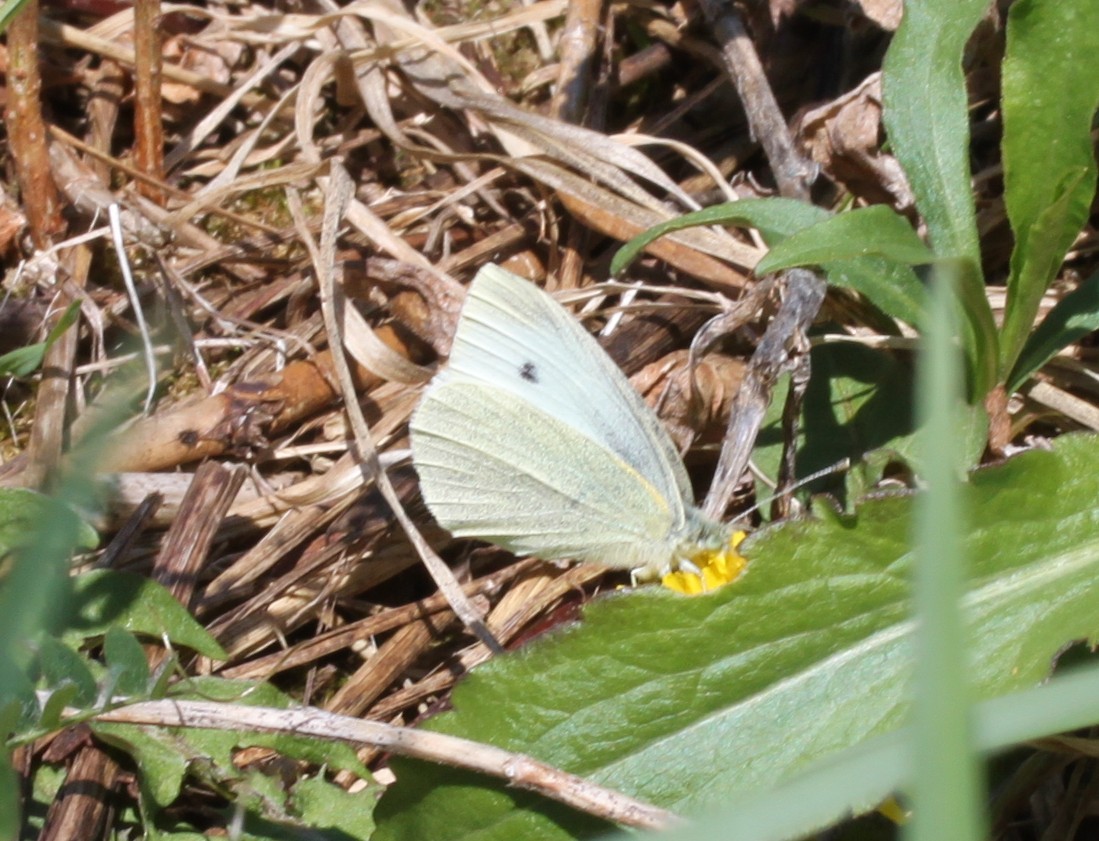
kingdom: Animalia
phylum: Arthropoda
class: Insecta
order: Lepidoptera
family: Pieridae
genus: Pieris
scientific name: Pieris rapae
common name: Small white
